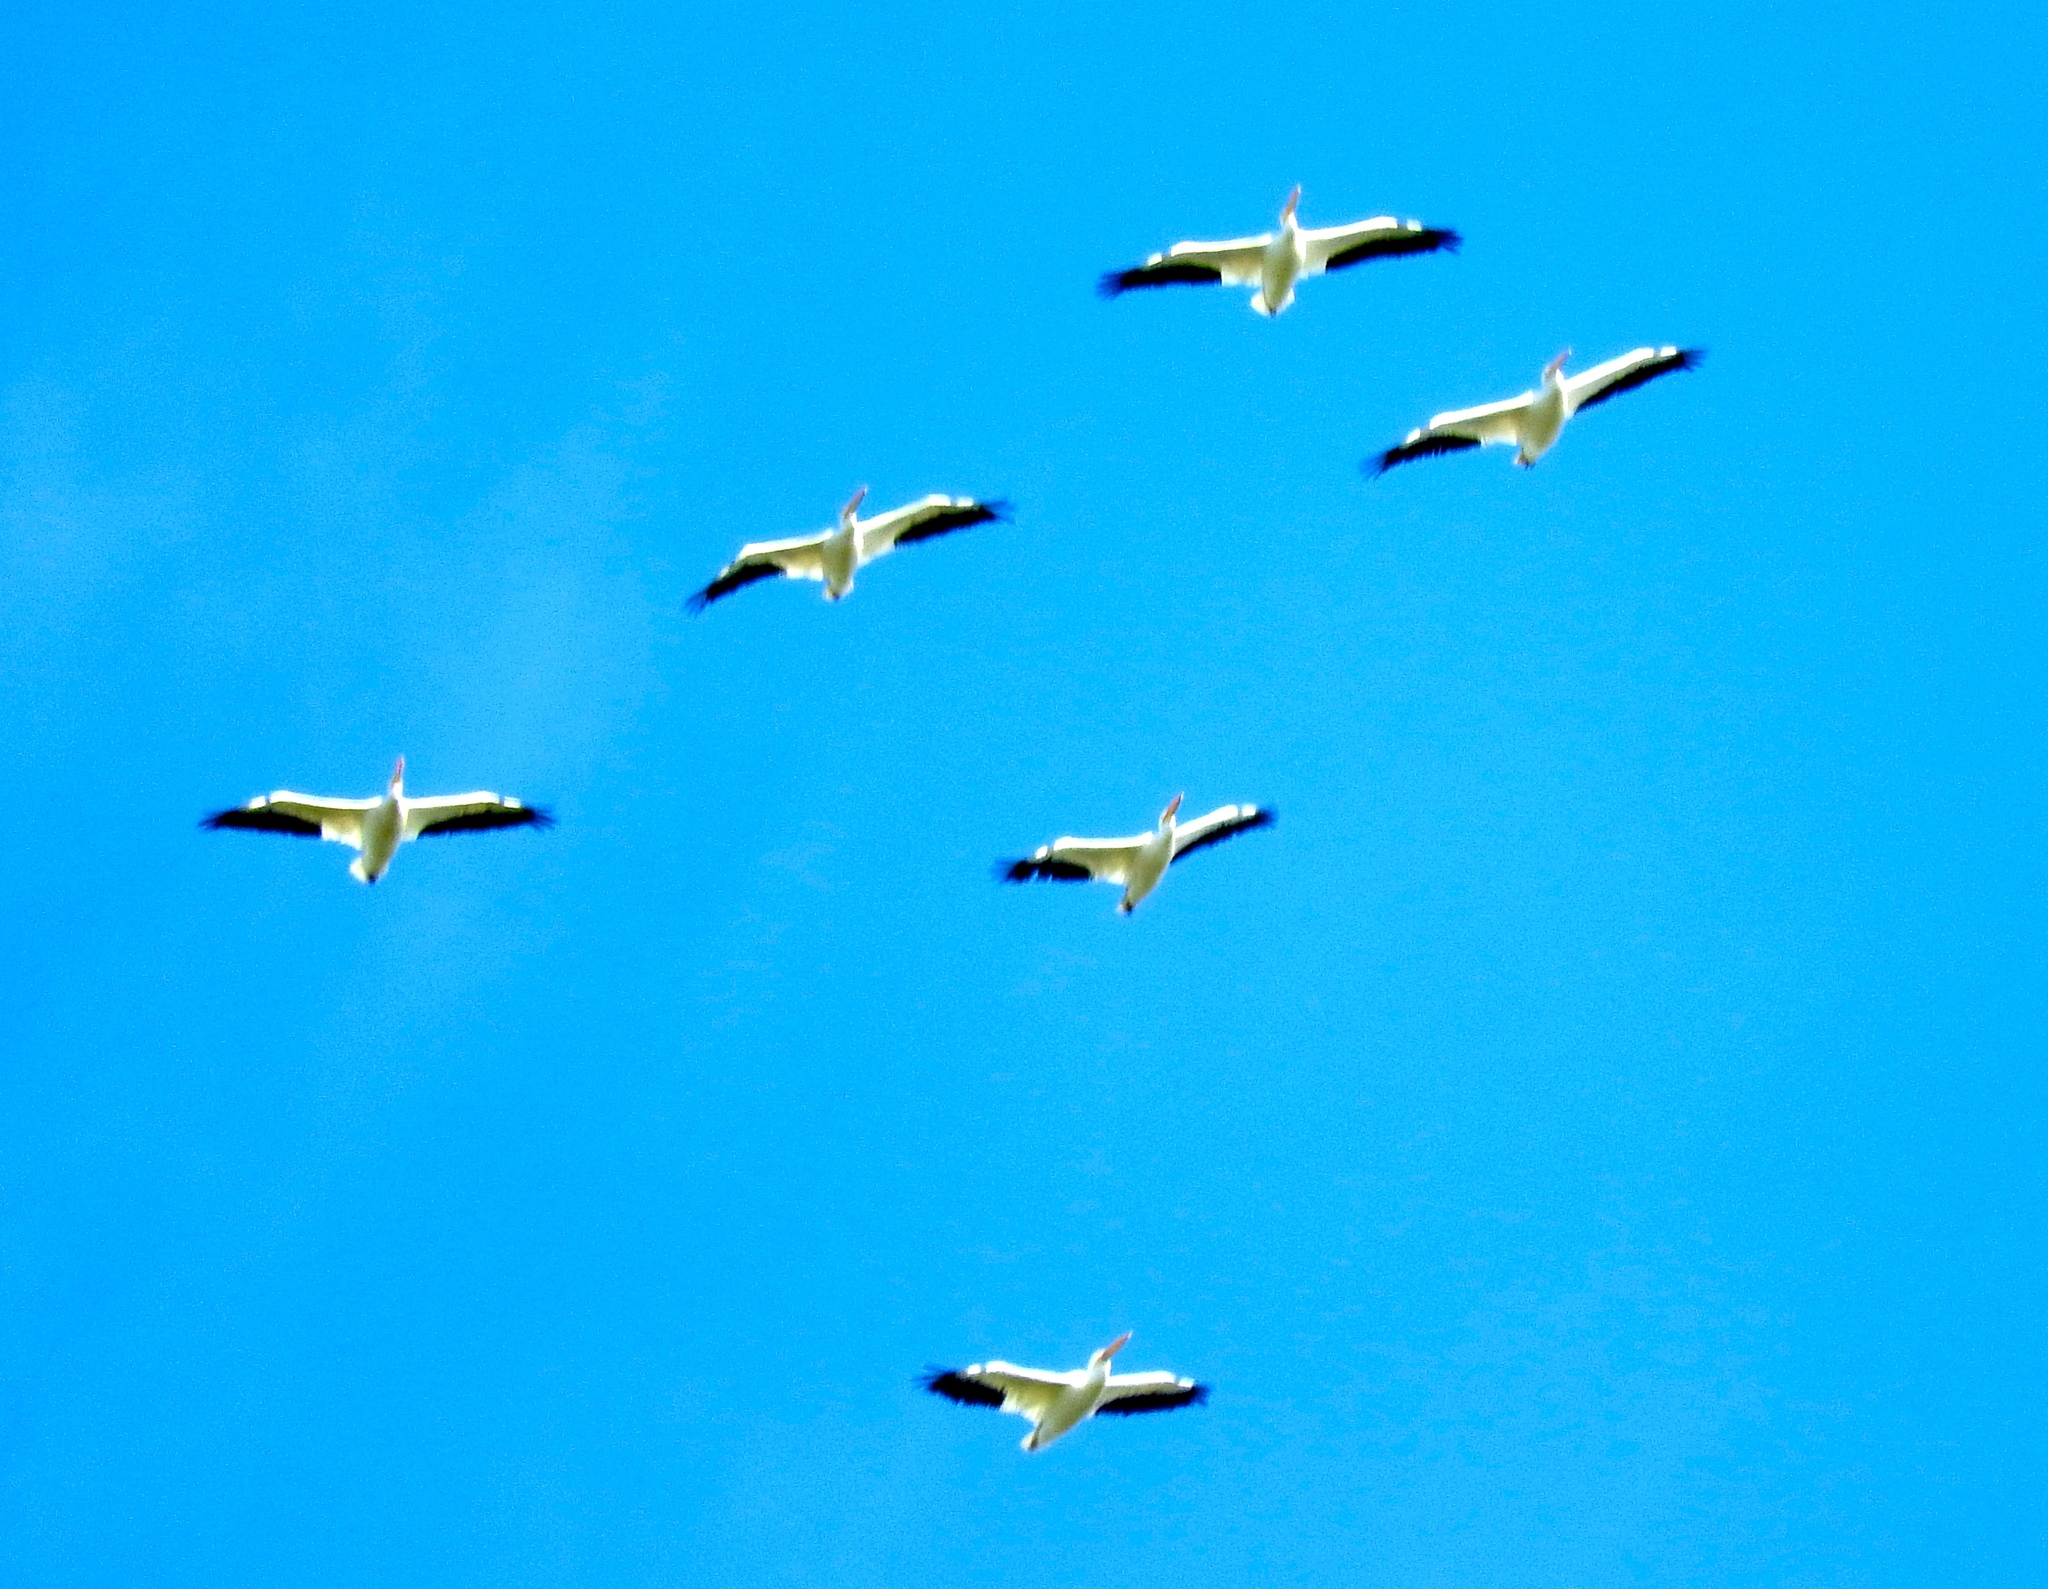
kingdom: Animalia
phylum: Chordata
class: Aves
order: Pelecaniformes
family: Pelecanidae
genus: Pelecanus
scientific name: Pelecanus erythrorhynchos
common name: American white pelican
